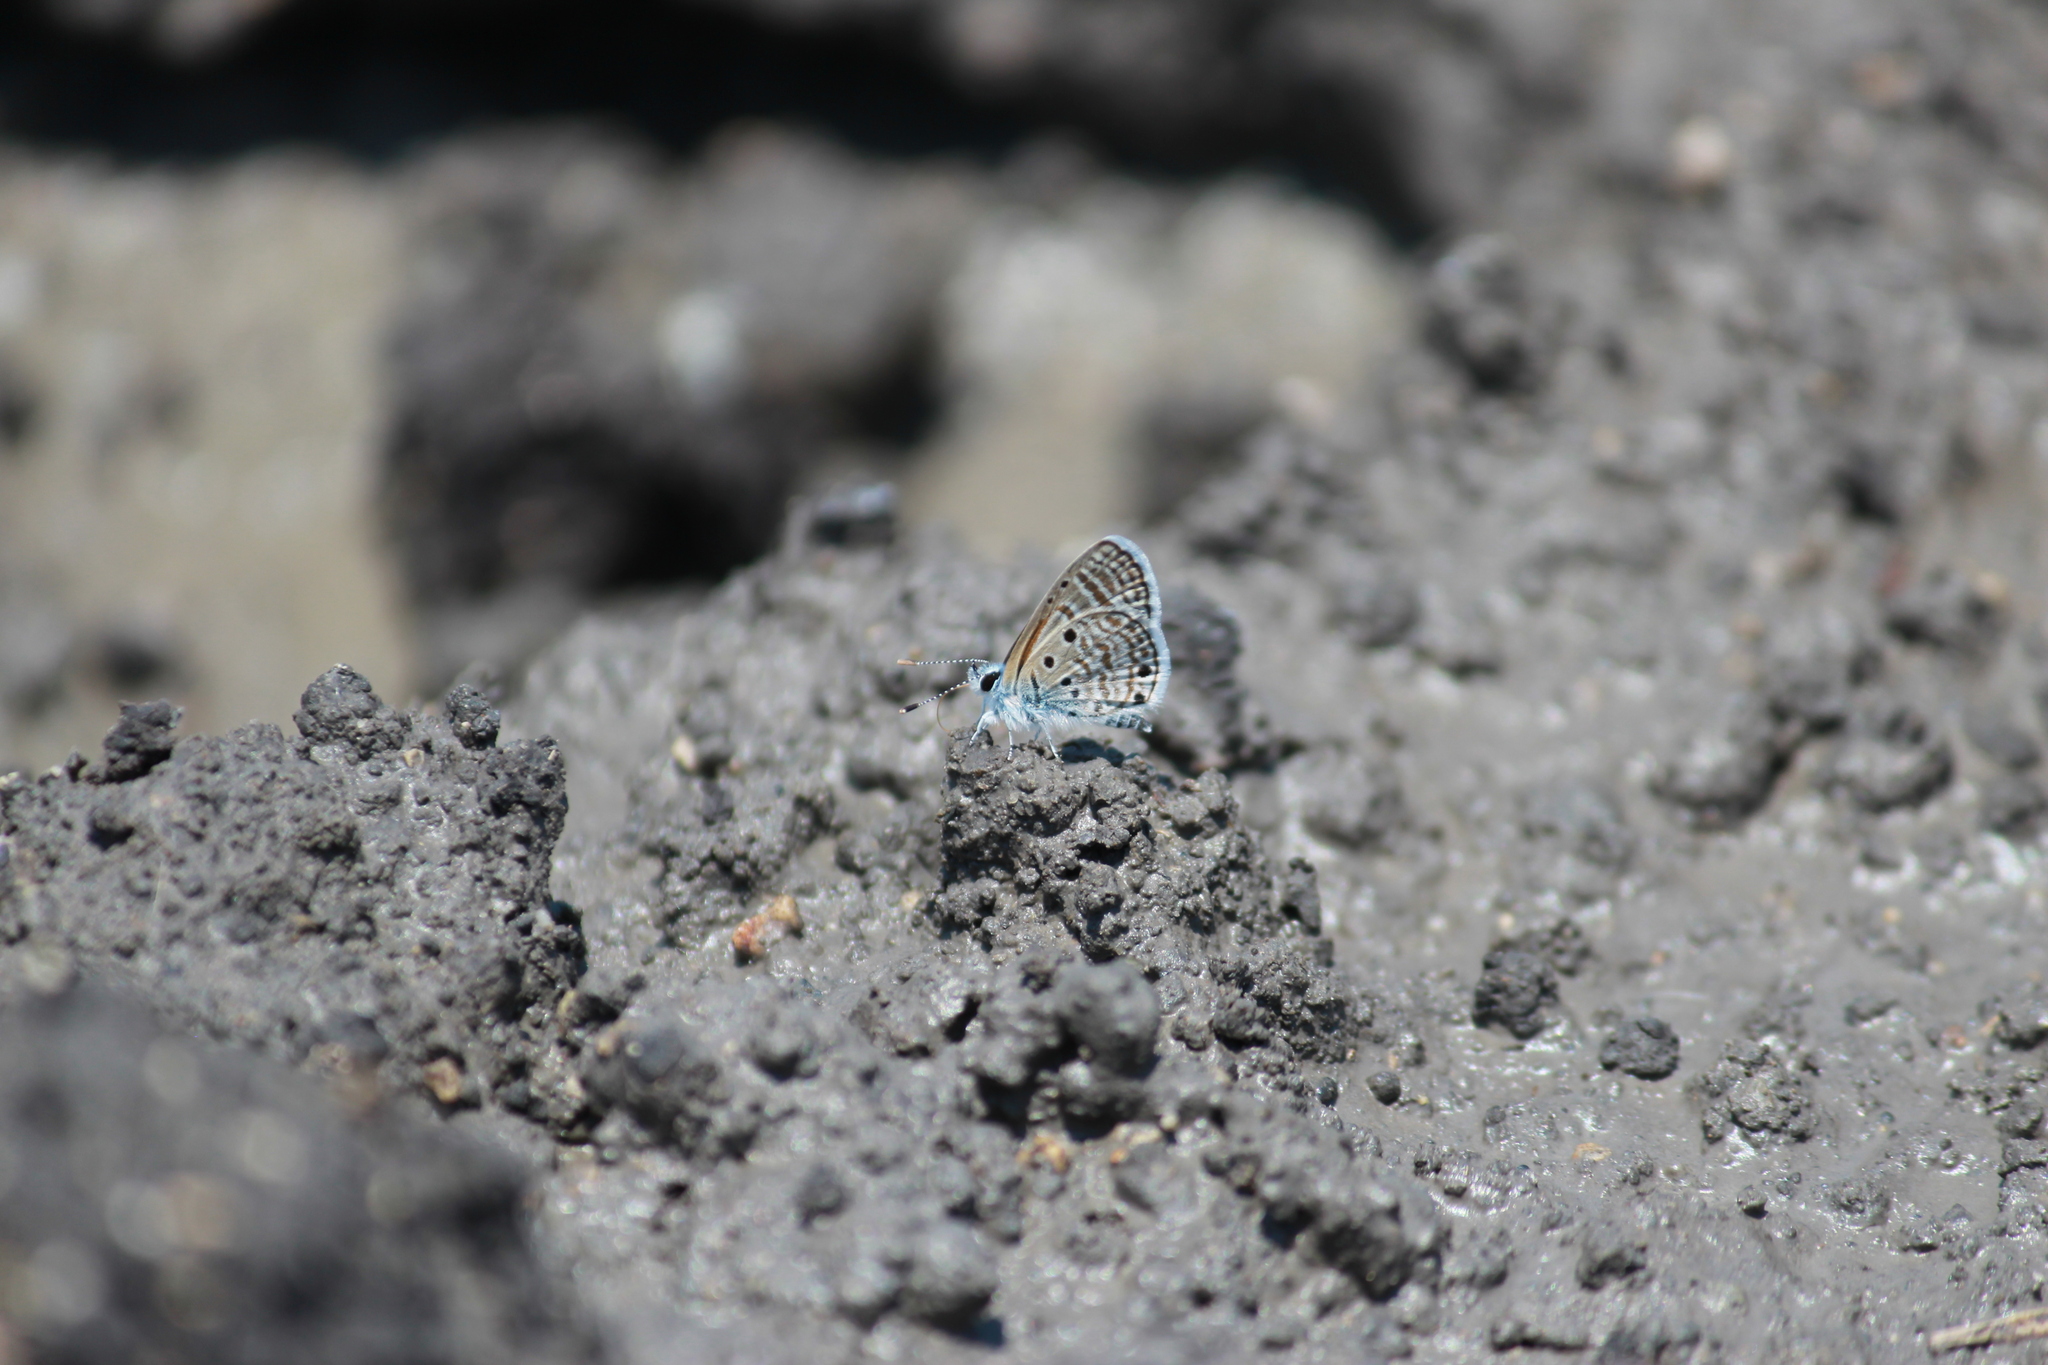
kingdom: Animalia
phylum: Arthropoda
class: Insecta
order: Lepidoptera
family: Lycaenidae
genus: Azanus
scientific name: Azanus ubaldus
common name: Desert babul blue
